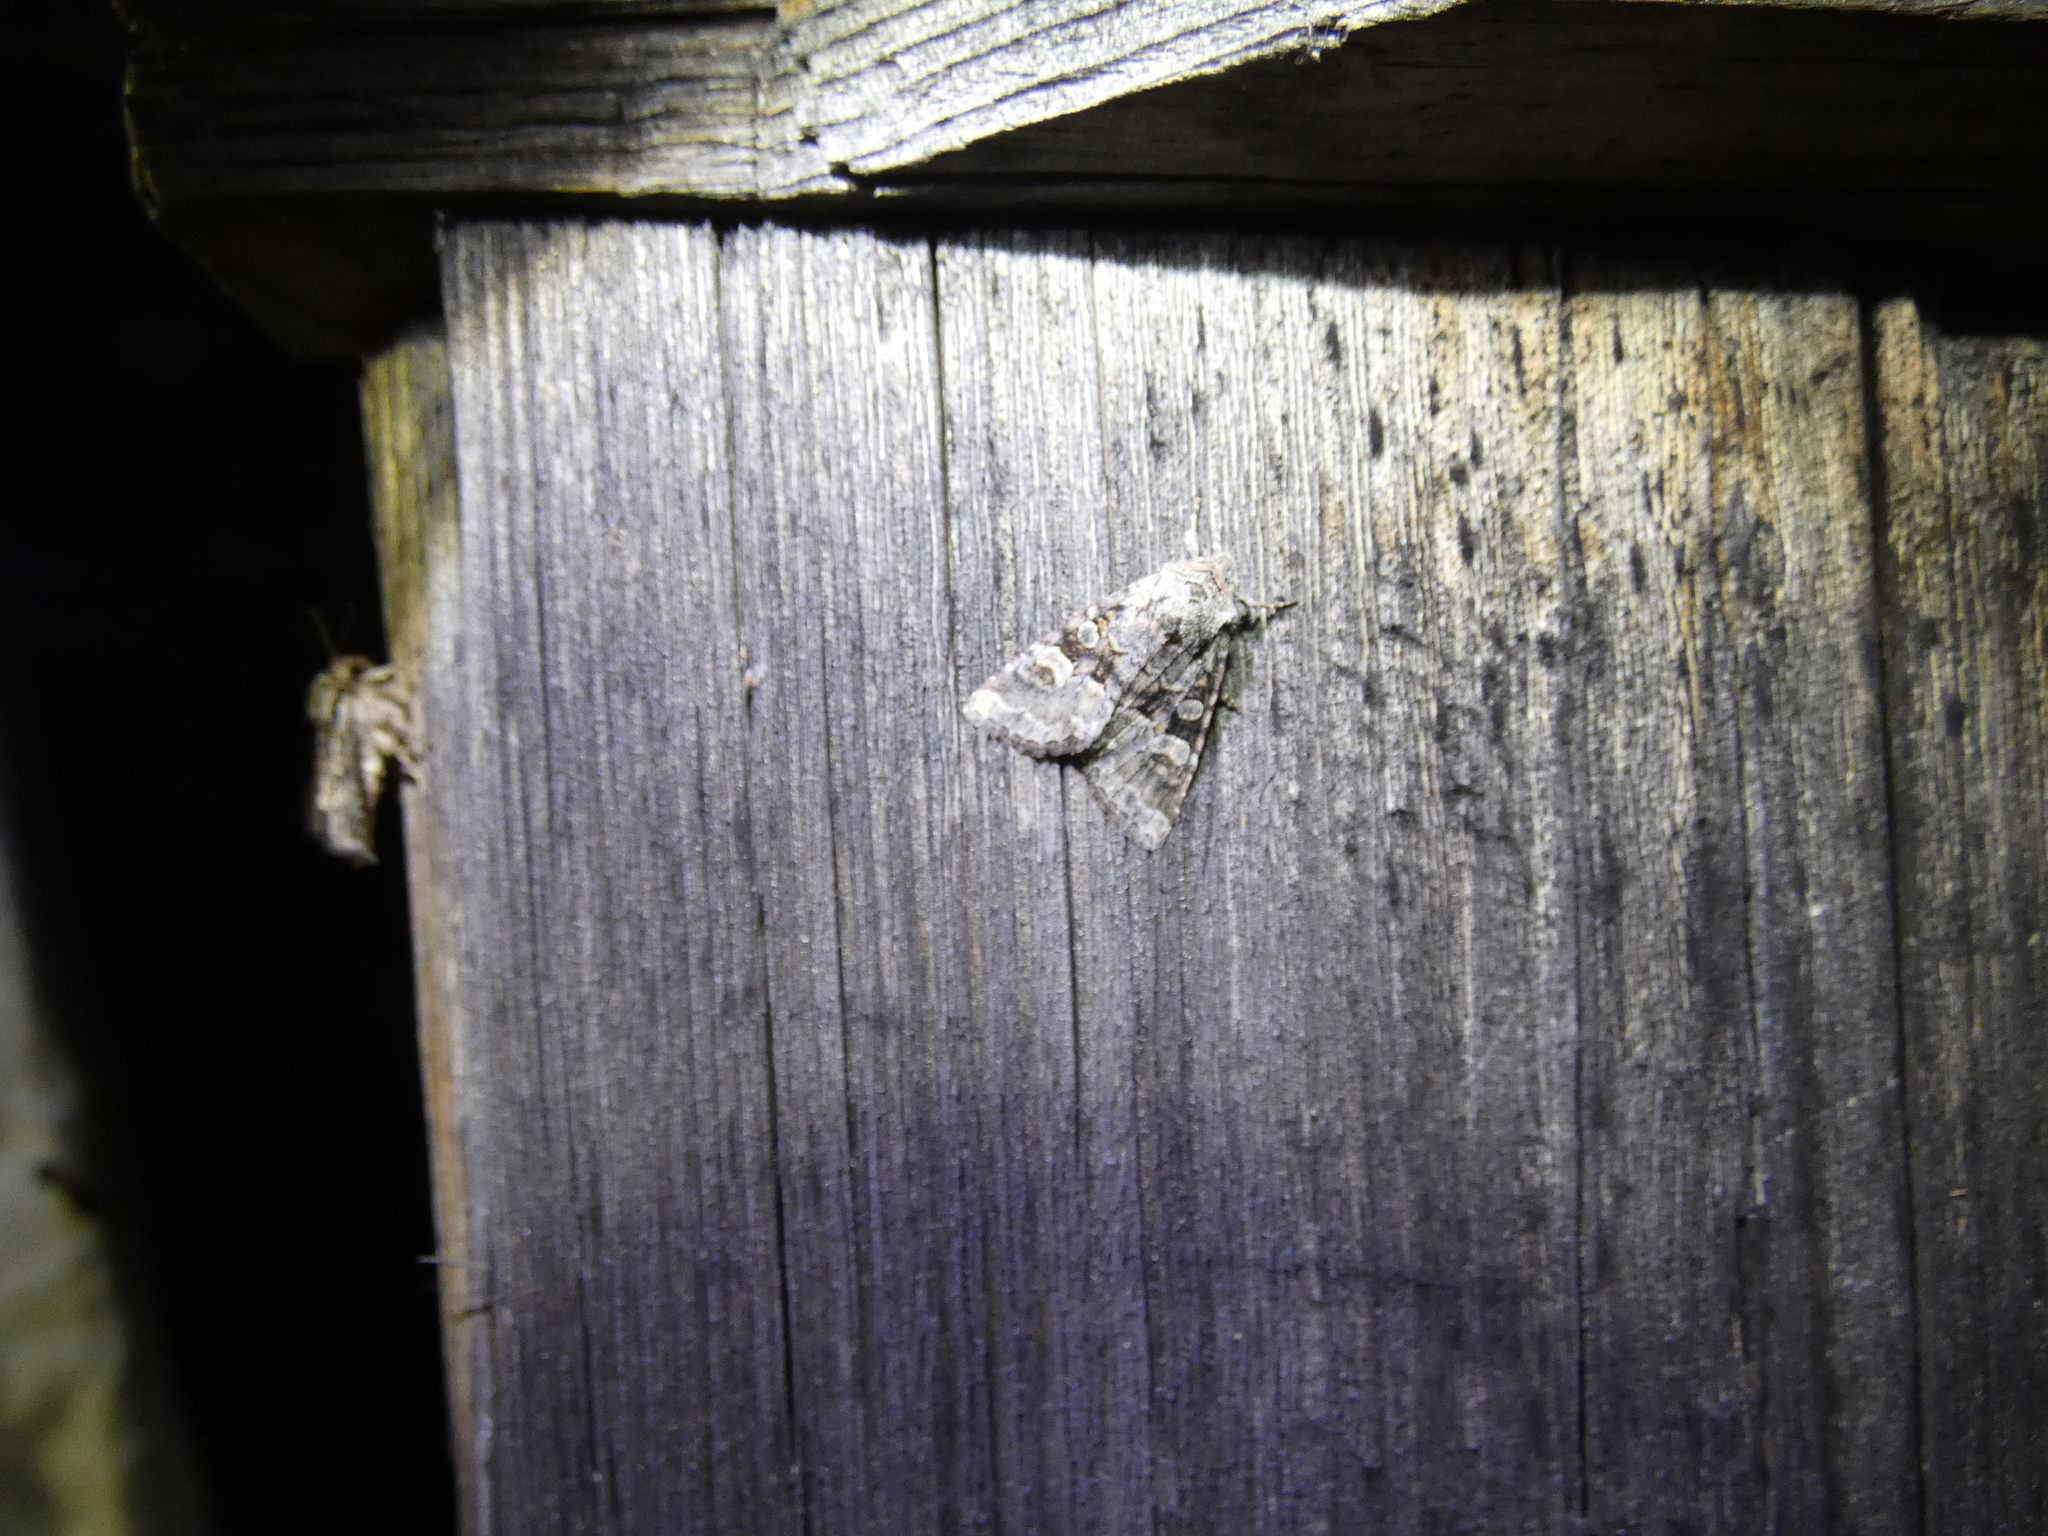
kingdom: Animalia
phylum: Arthropoda
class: Insecta
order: Lepidoptera
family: Noctuidae
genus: Brachylomia
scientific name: Brachylomia viminalis
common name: Minor shoulder-knot
